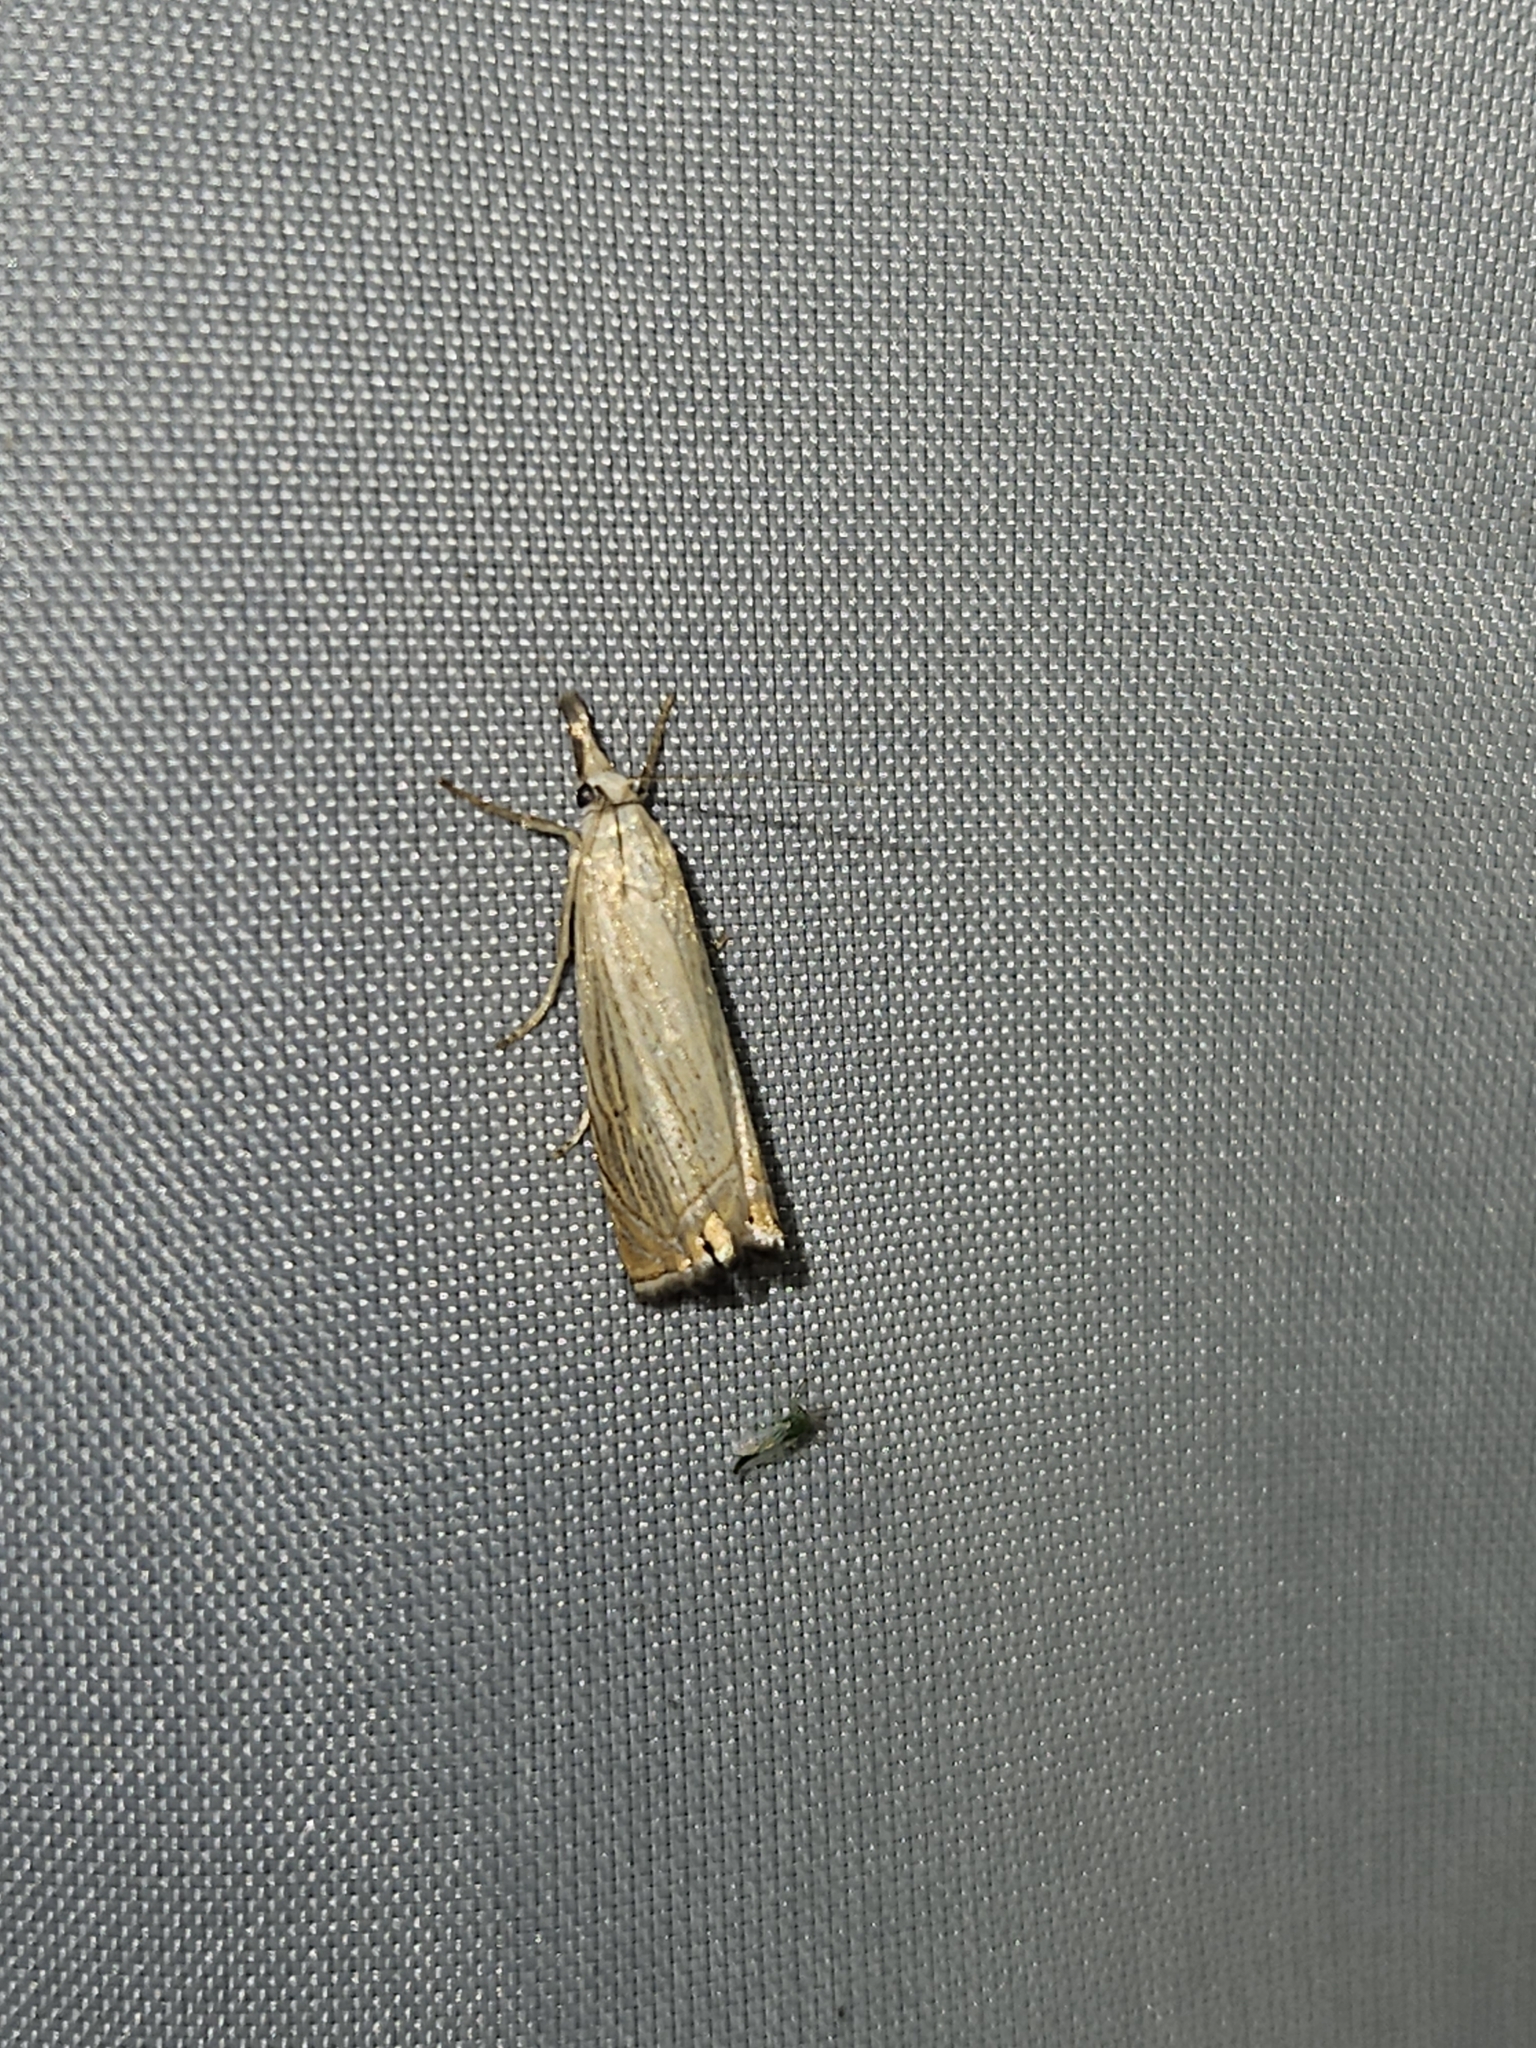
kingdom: Animalia
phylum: Arthropoda
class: Insecta
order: Lepidoptera
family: Crambidae
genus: Chrysoteuchia
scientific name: Chrysoteuchia culmella
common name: Garden grass-veneer
